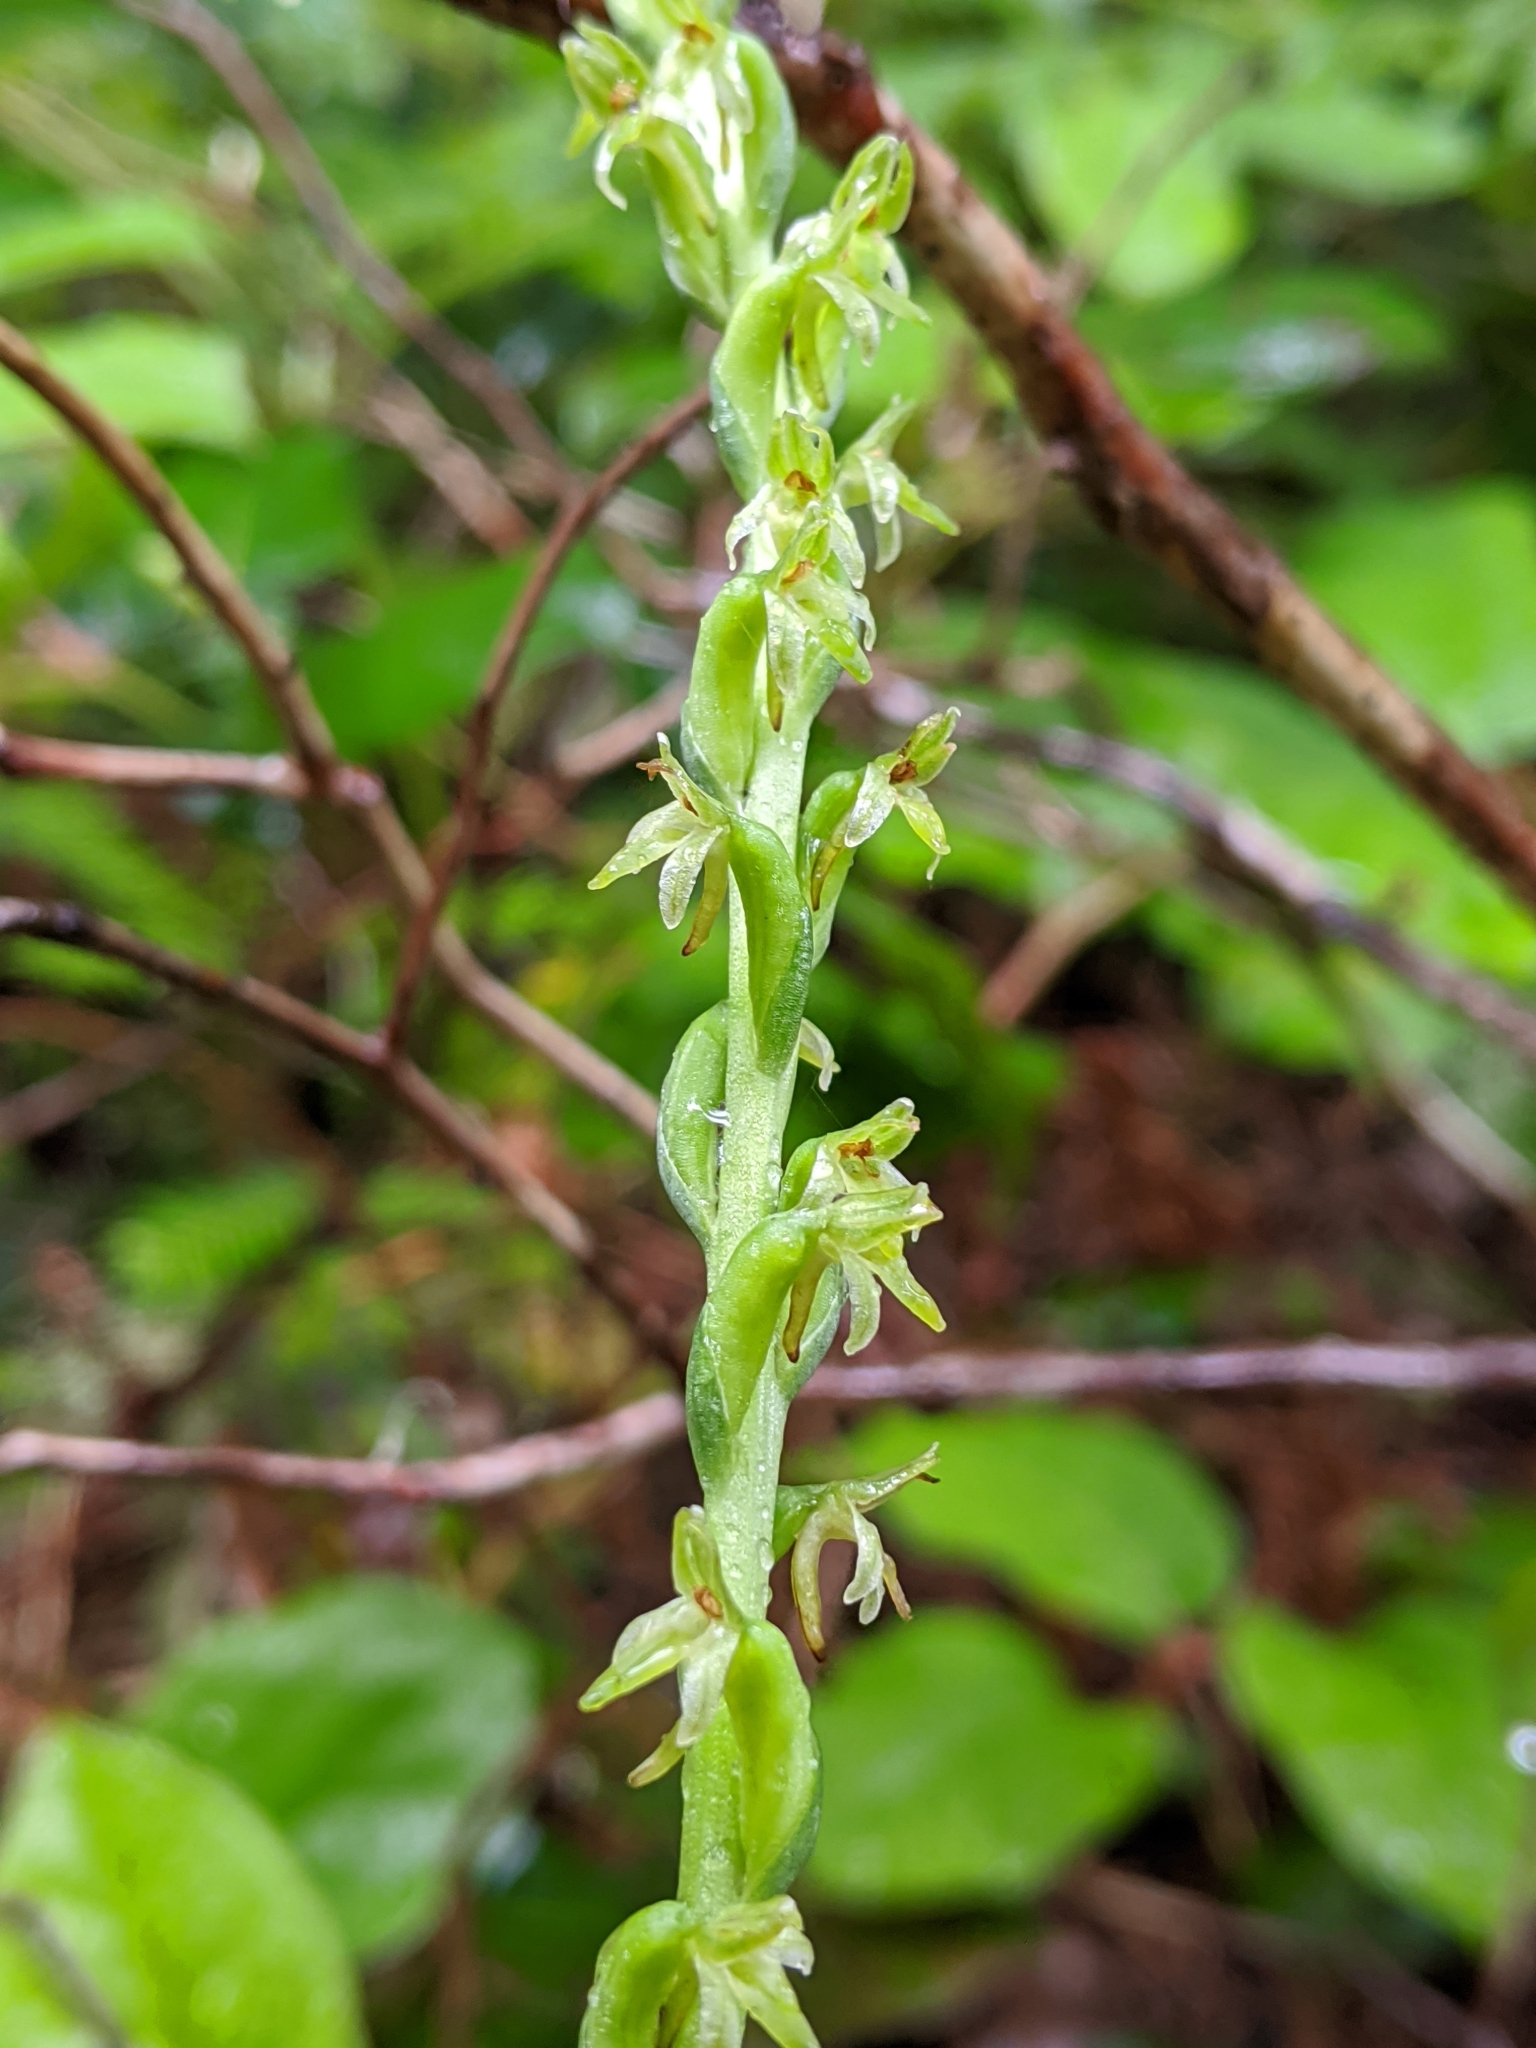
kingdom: Plantae
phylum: Tracheophyta
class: Liliopsida
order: Asparagales
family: Orchidaceae
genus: Platanthera
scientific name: Platanthera unalascensis
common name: Alaska bog orchid
